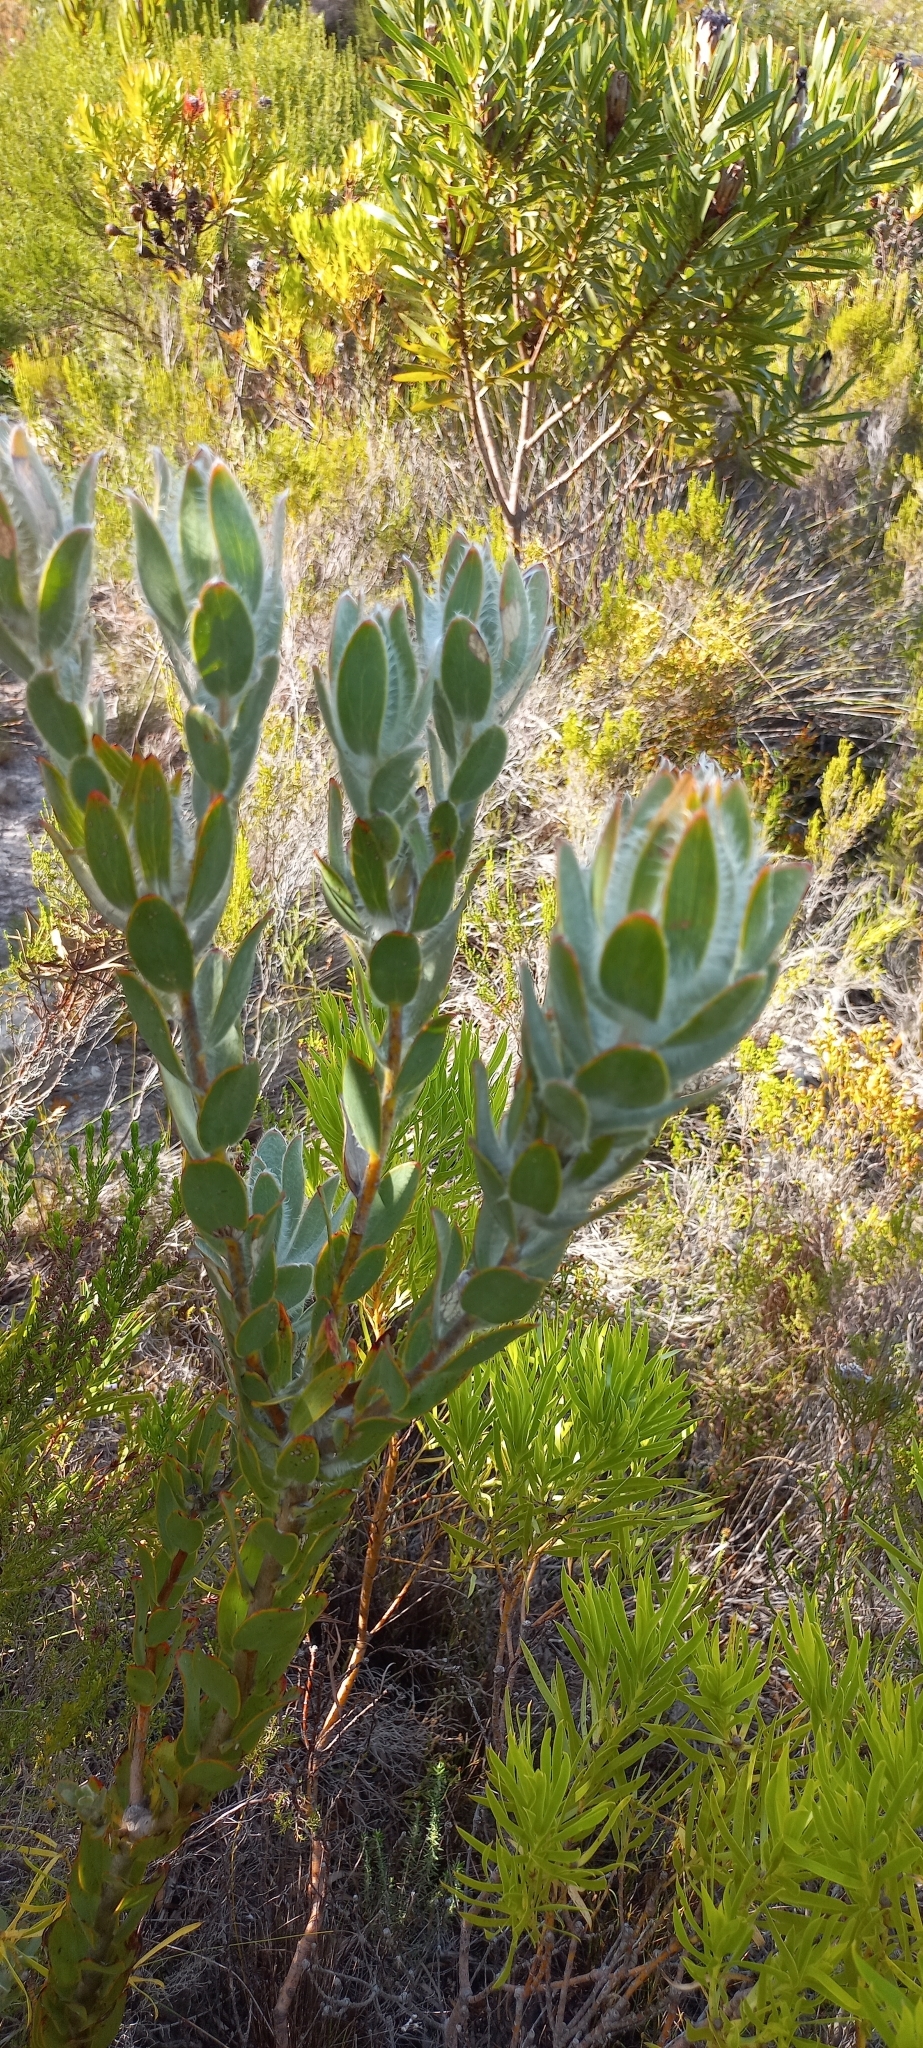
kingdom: Plantae
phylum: Tracheophyta
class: Magnoliopsida
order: Proteales
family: Proteaceae
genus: Leucadendron
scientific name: Leucadendron nervosum
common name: Silky-ruff conebush
